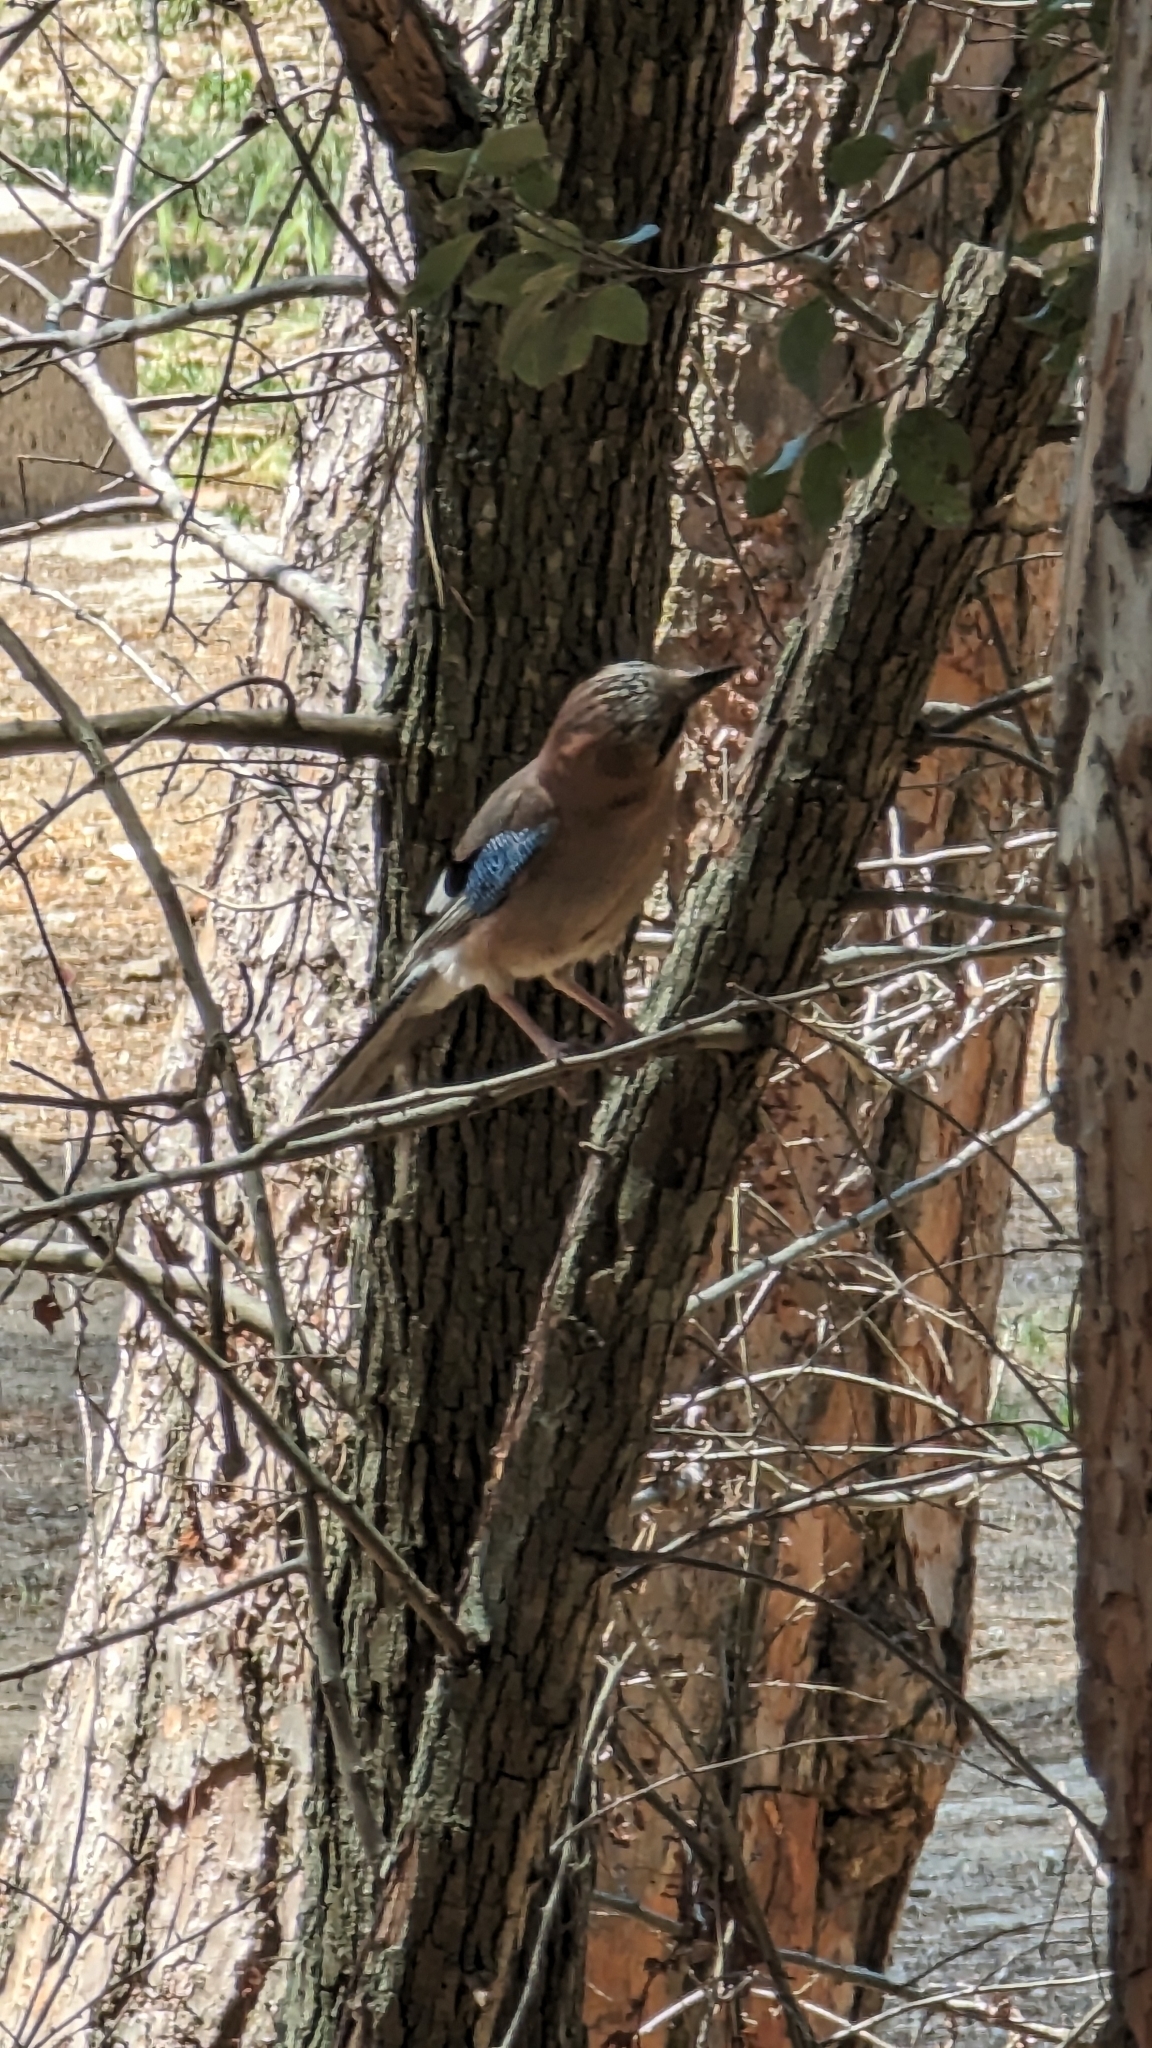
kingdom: Animalia
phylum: Chordata
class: Aves
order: Passeriformes
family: Corvidae
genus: Garrulus
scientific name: Garrulus glandarius
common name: Eurasian jay
